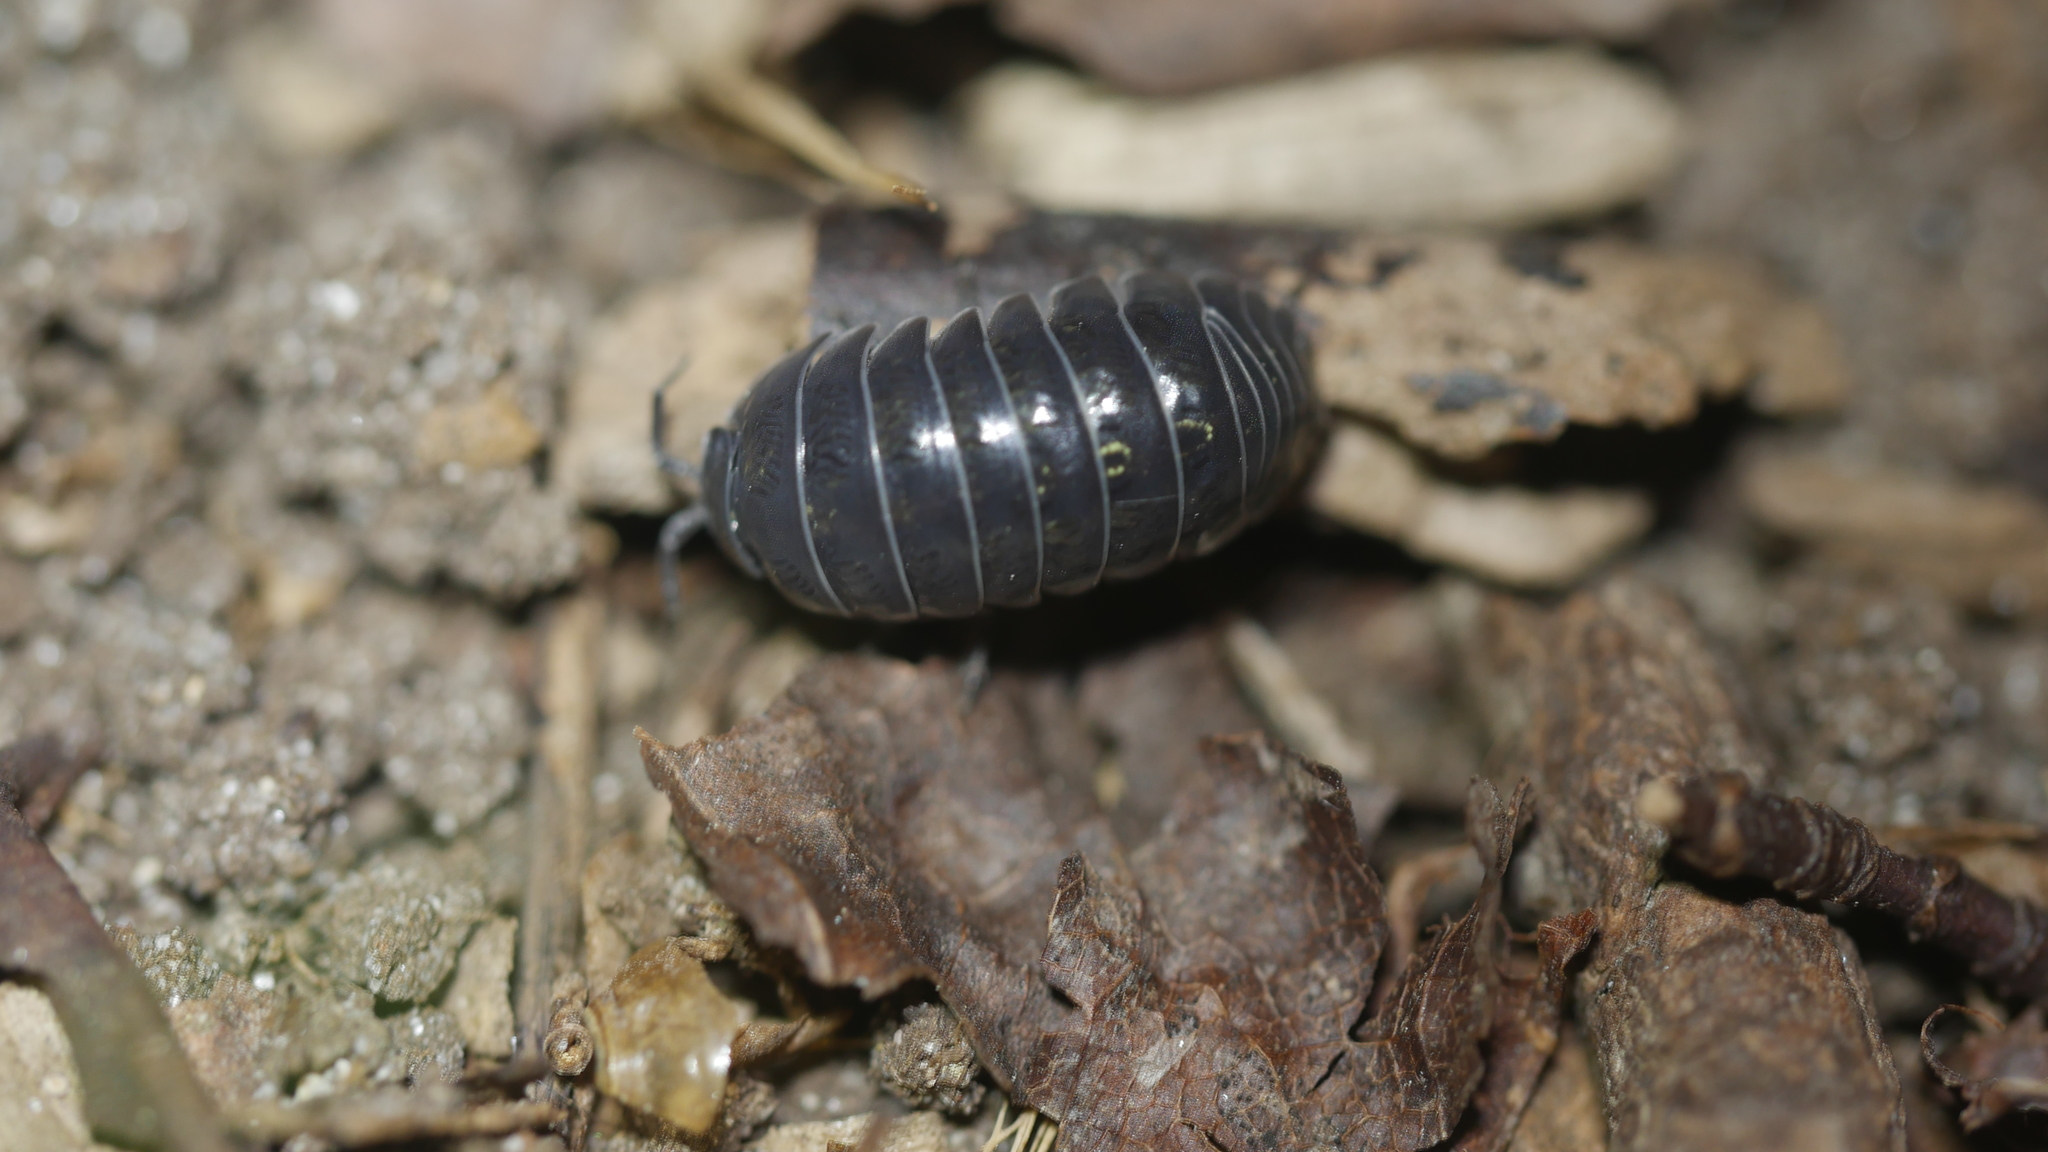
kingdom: Animalia
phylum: Arthropoda
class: Malacostraca
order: Isopoda
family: Armadillidiidae
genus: Armadillidium
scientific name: Armadillidium vulgare
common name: Common pill woodlouse
